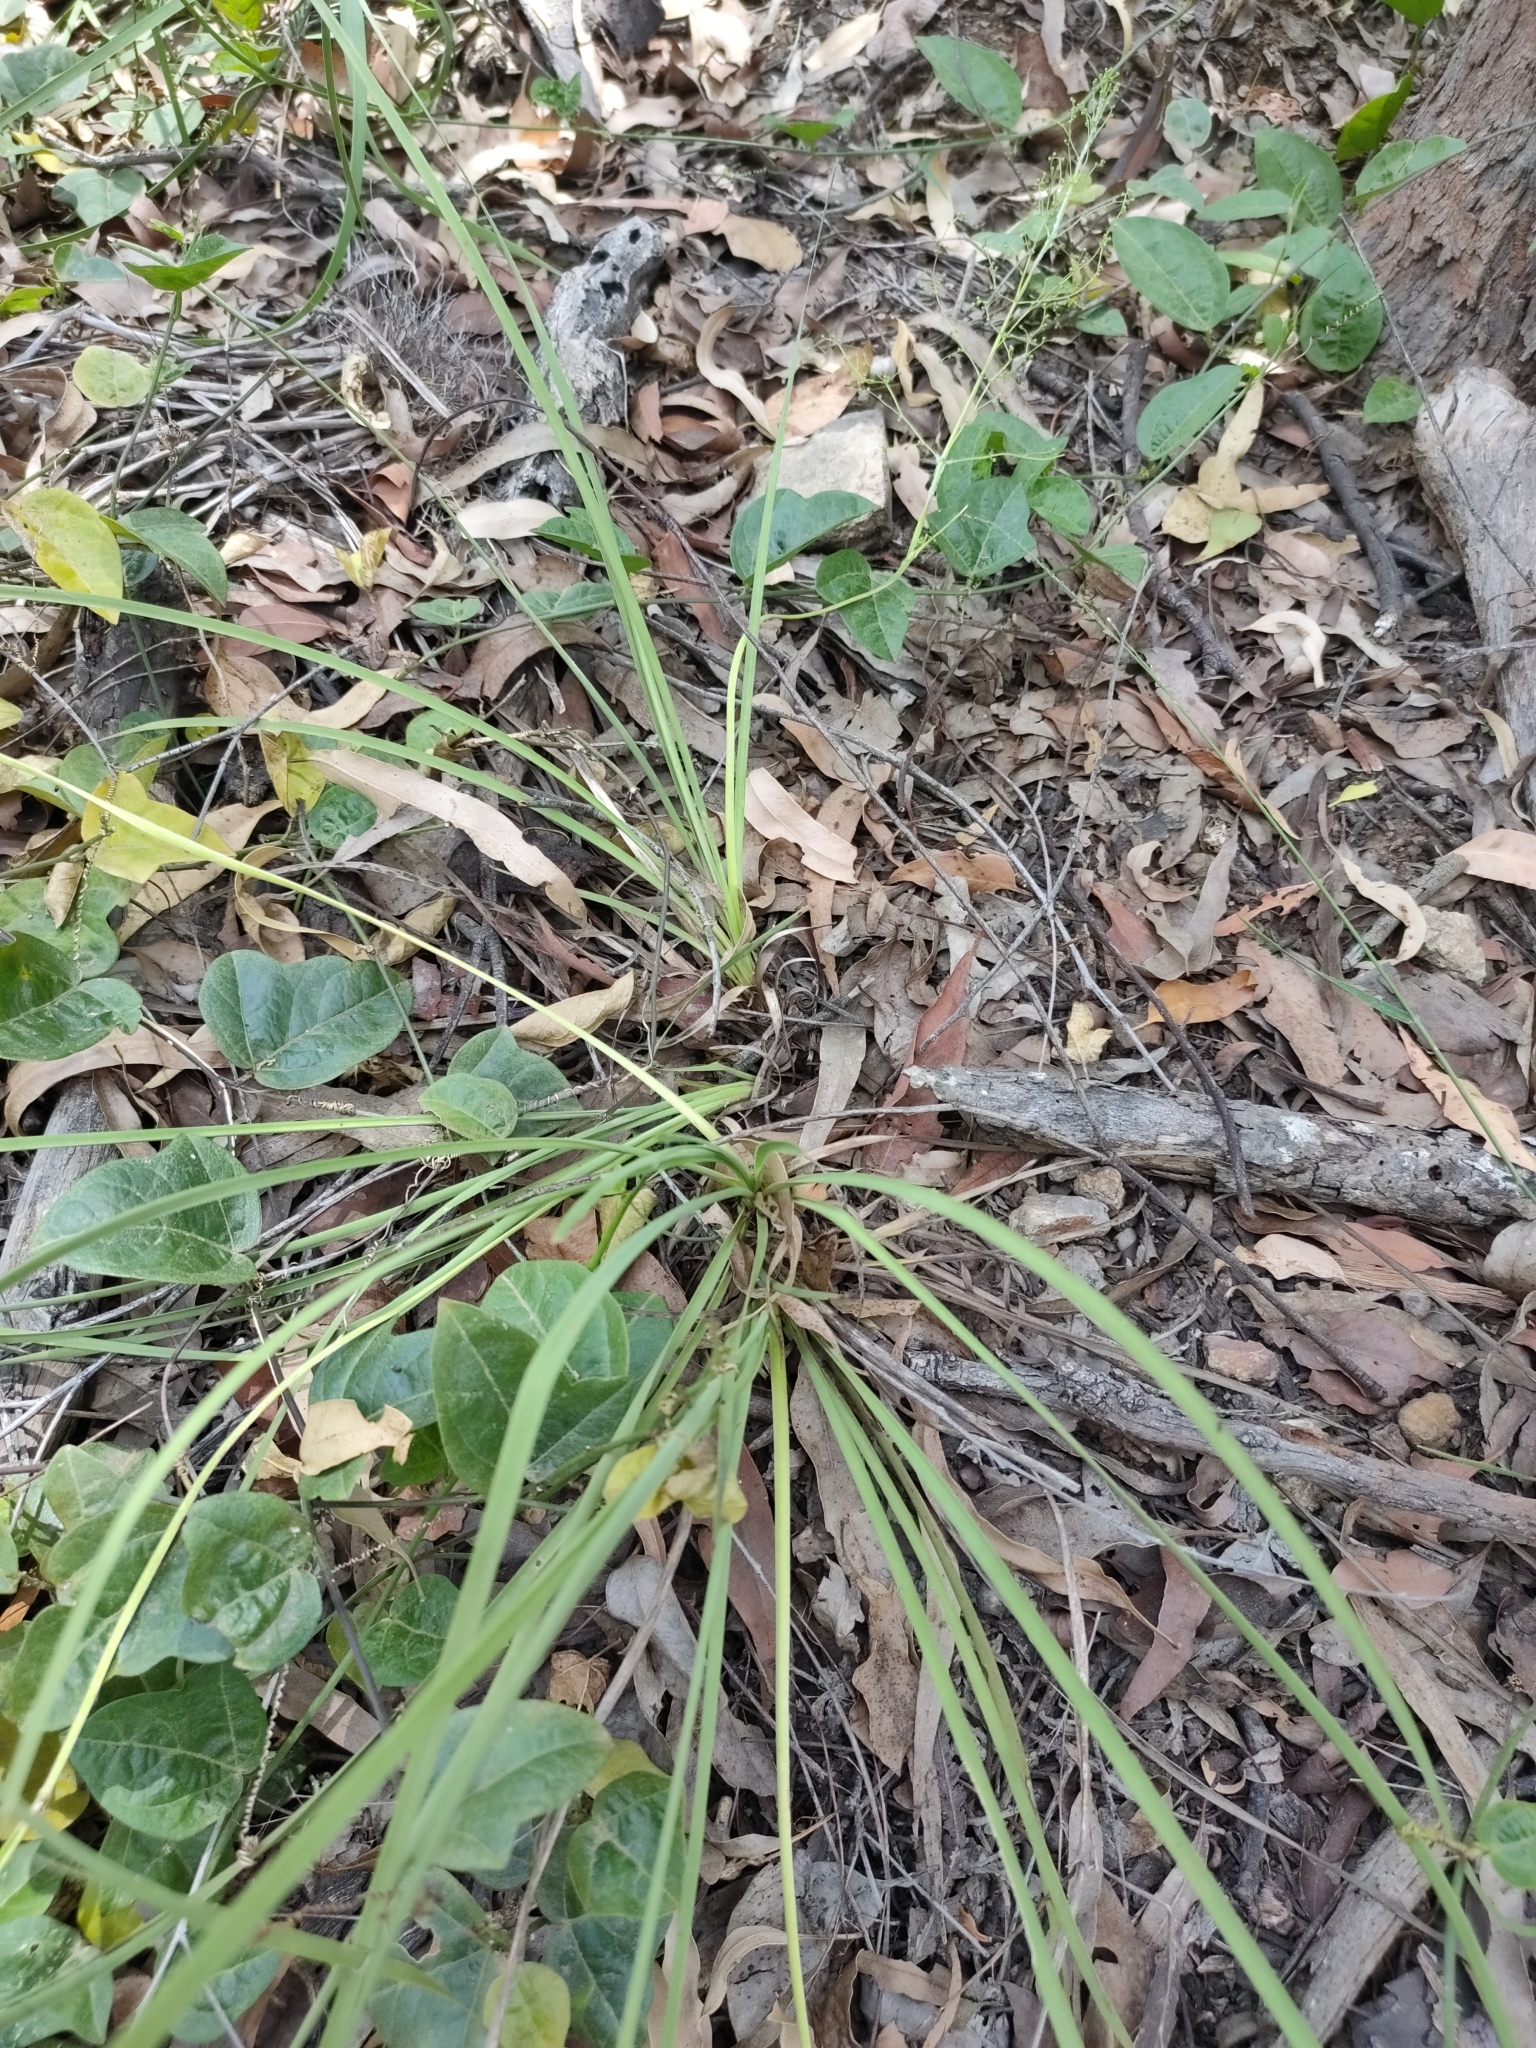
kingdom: Plantae
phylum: Tracheophyta
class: Liliopsida
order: Asparagales
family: Asparagaceae
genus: Lomandra
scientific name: Lomandra laxa
